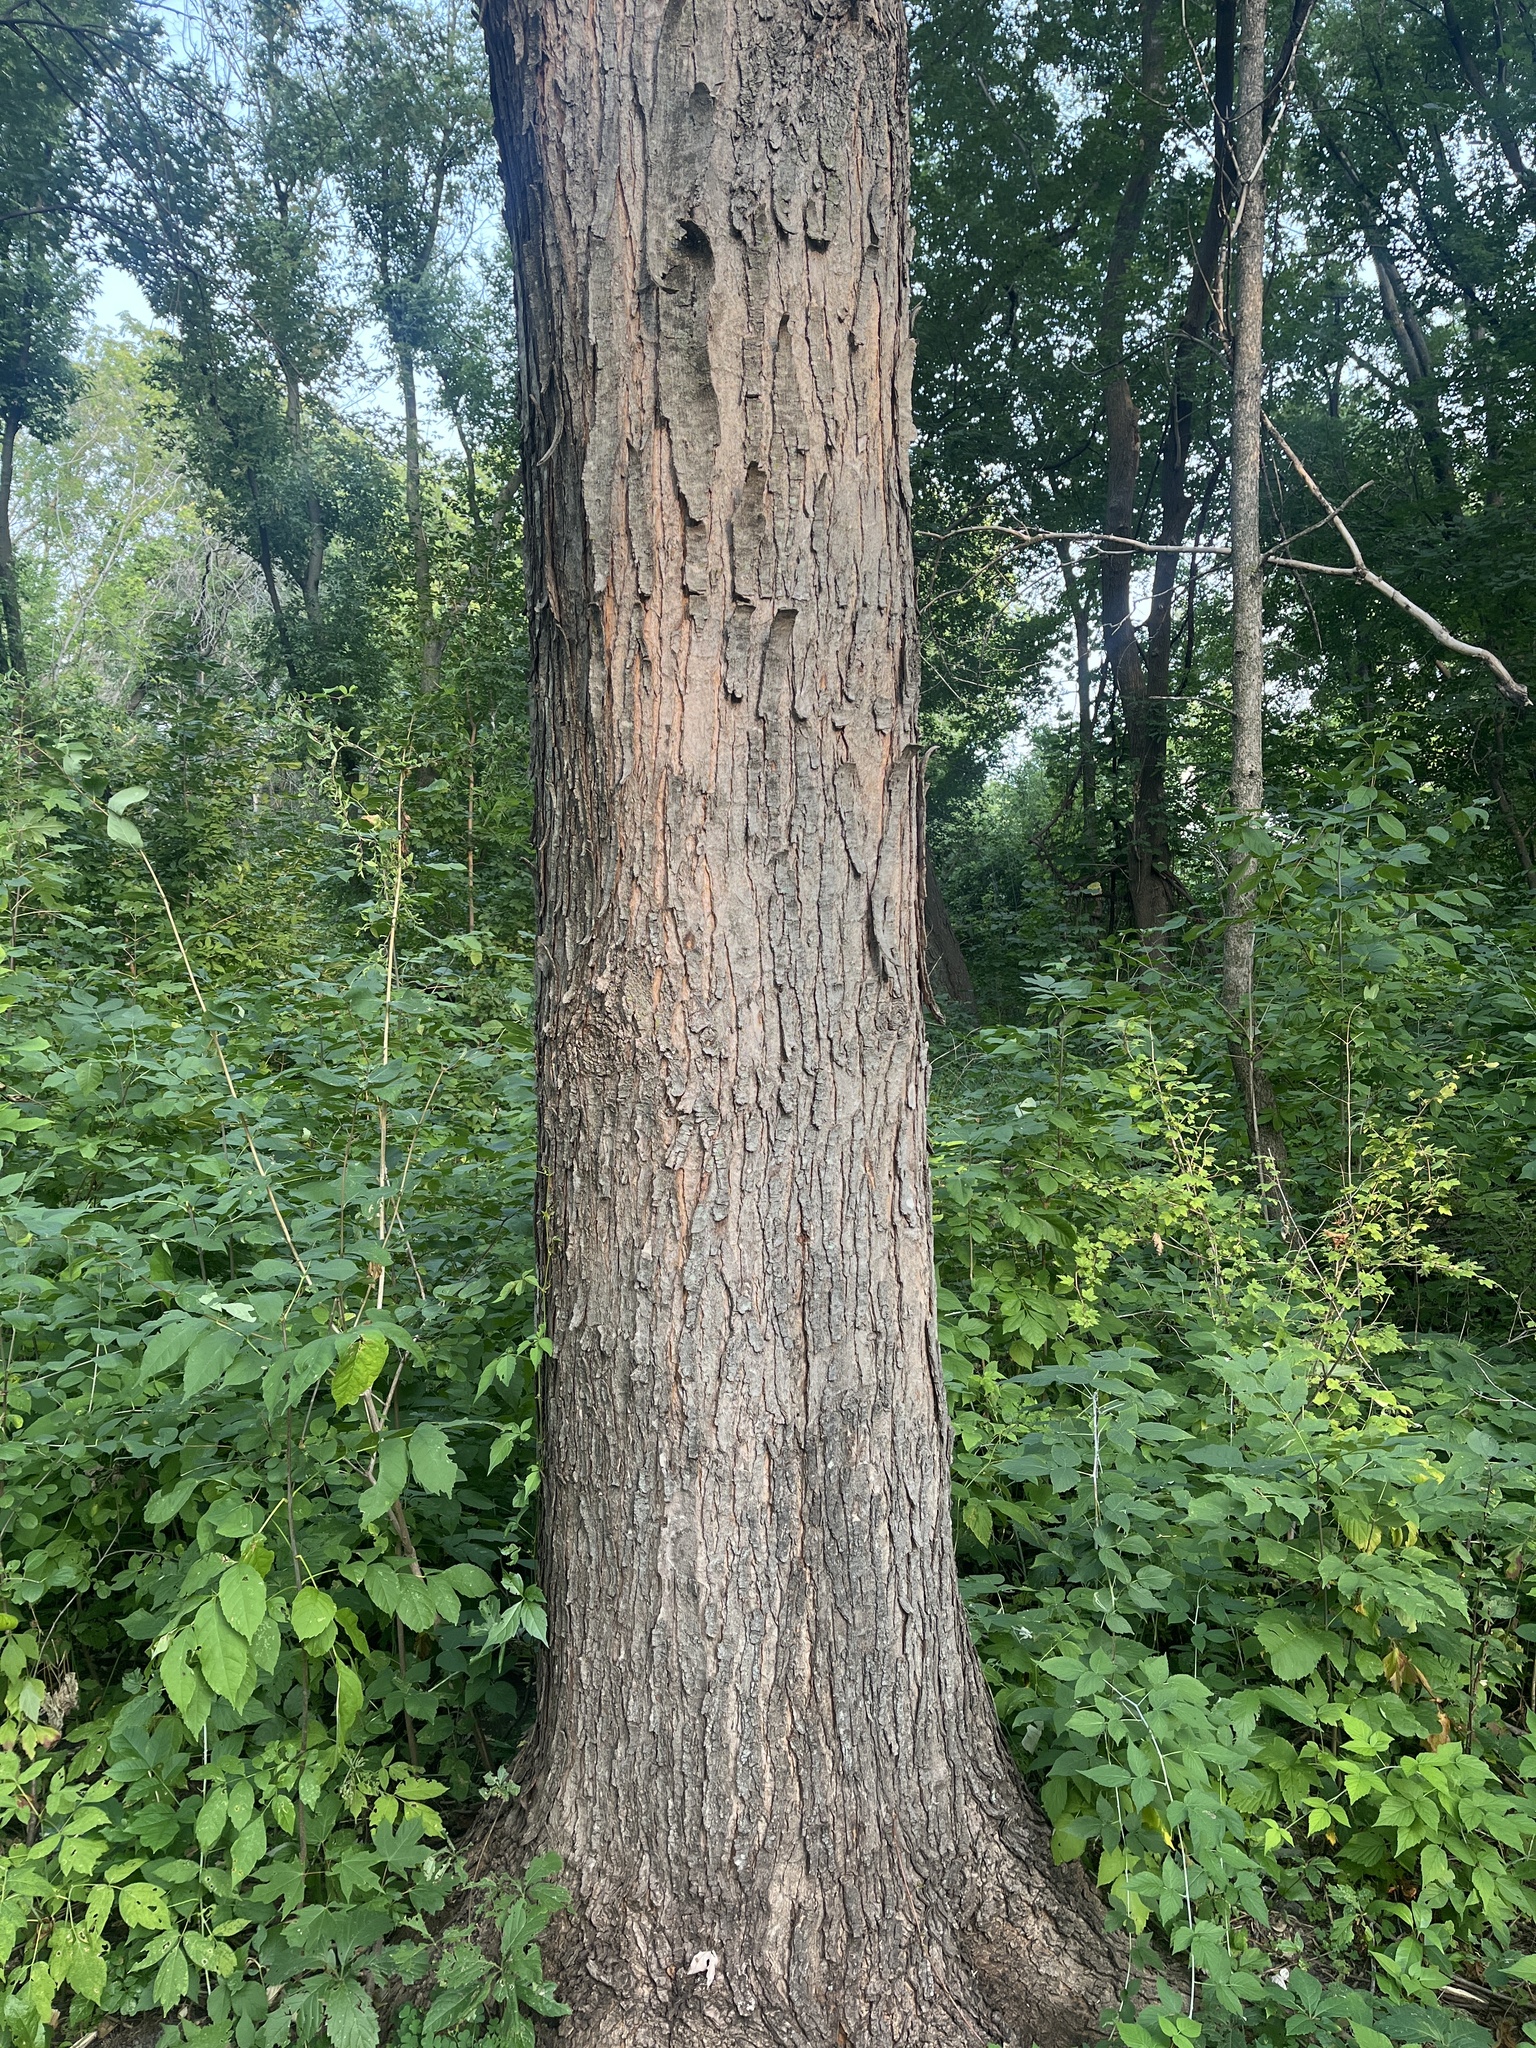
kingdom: Plantae
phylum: Tracheophyta
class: Magnoliopsida
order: Sapindales
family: Sapindaceae
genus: Acer
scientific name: Acer saccharinum
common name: Silver maple
